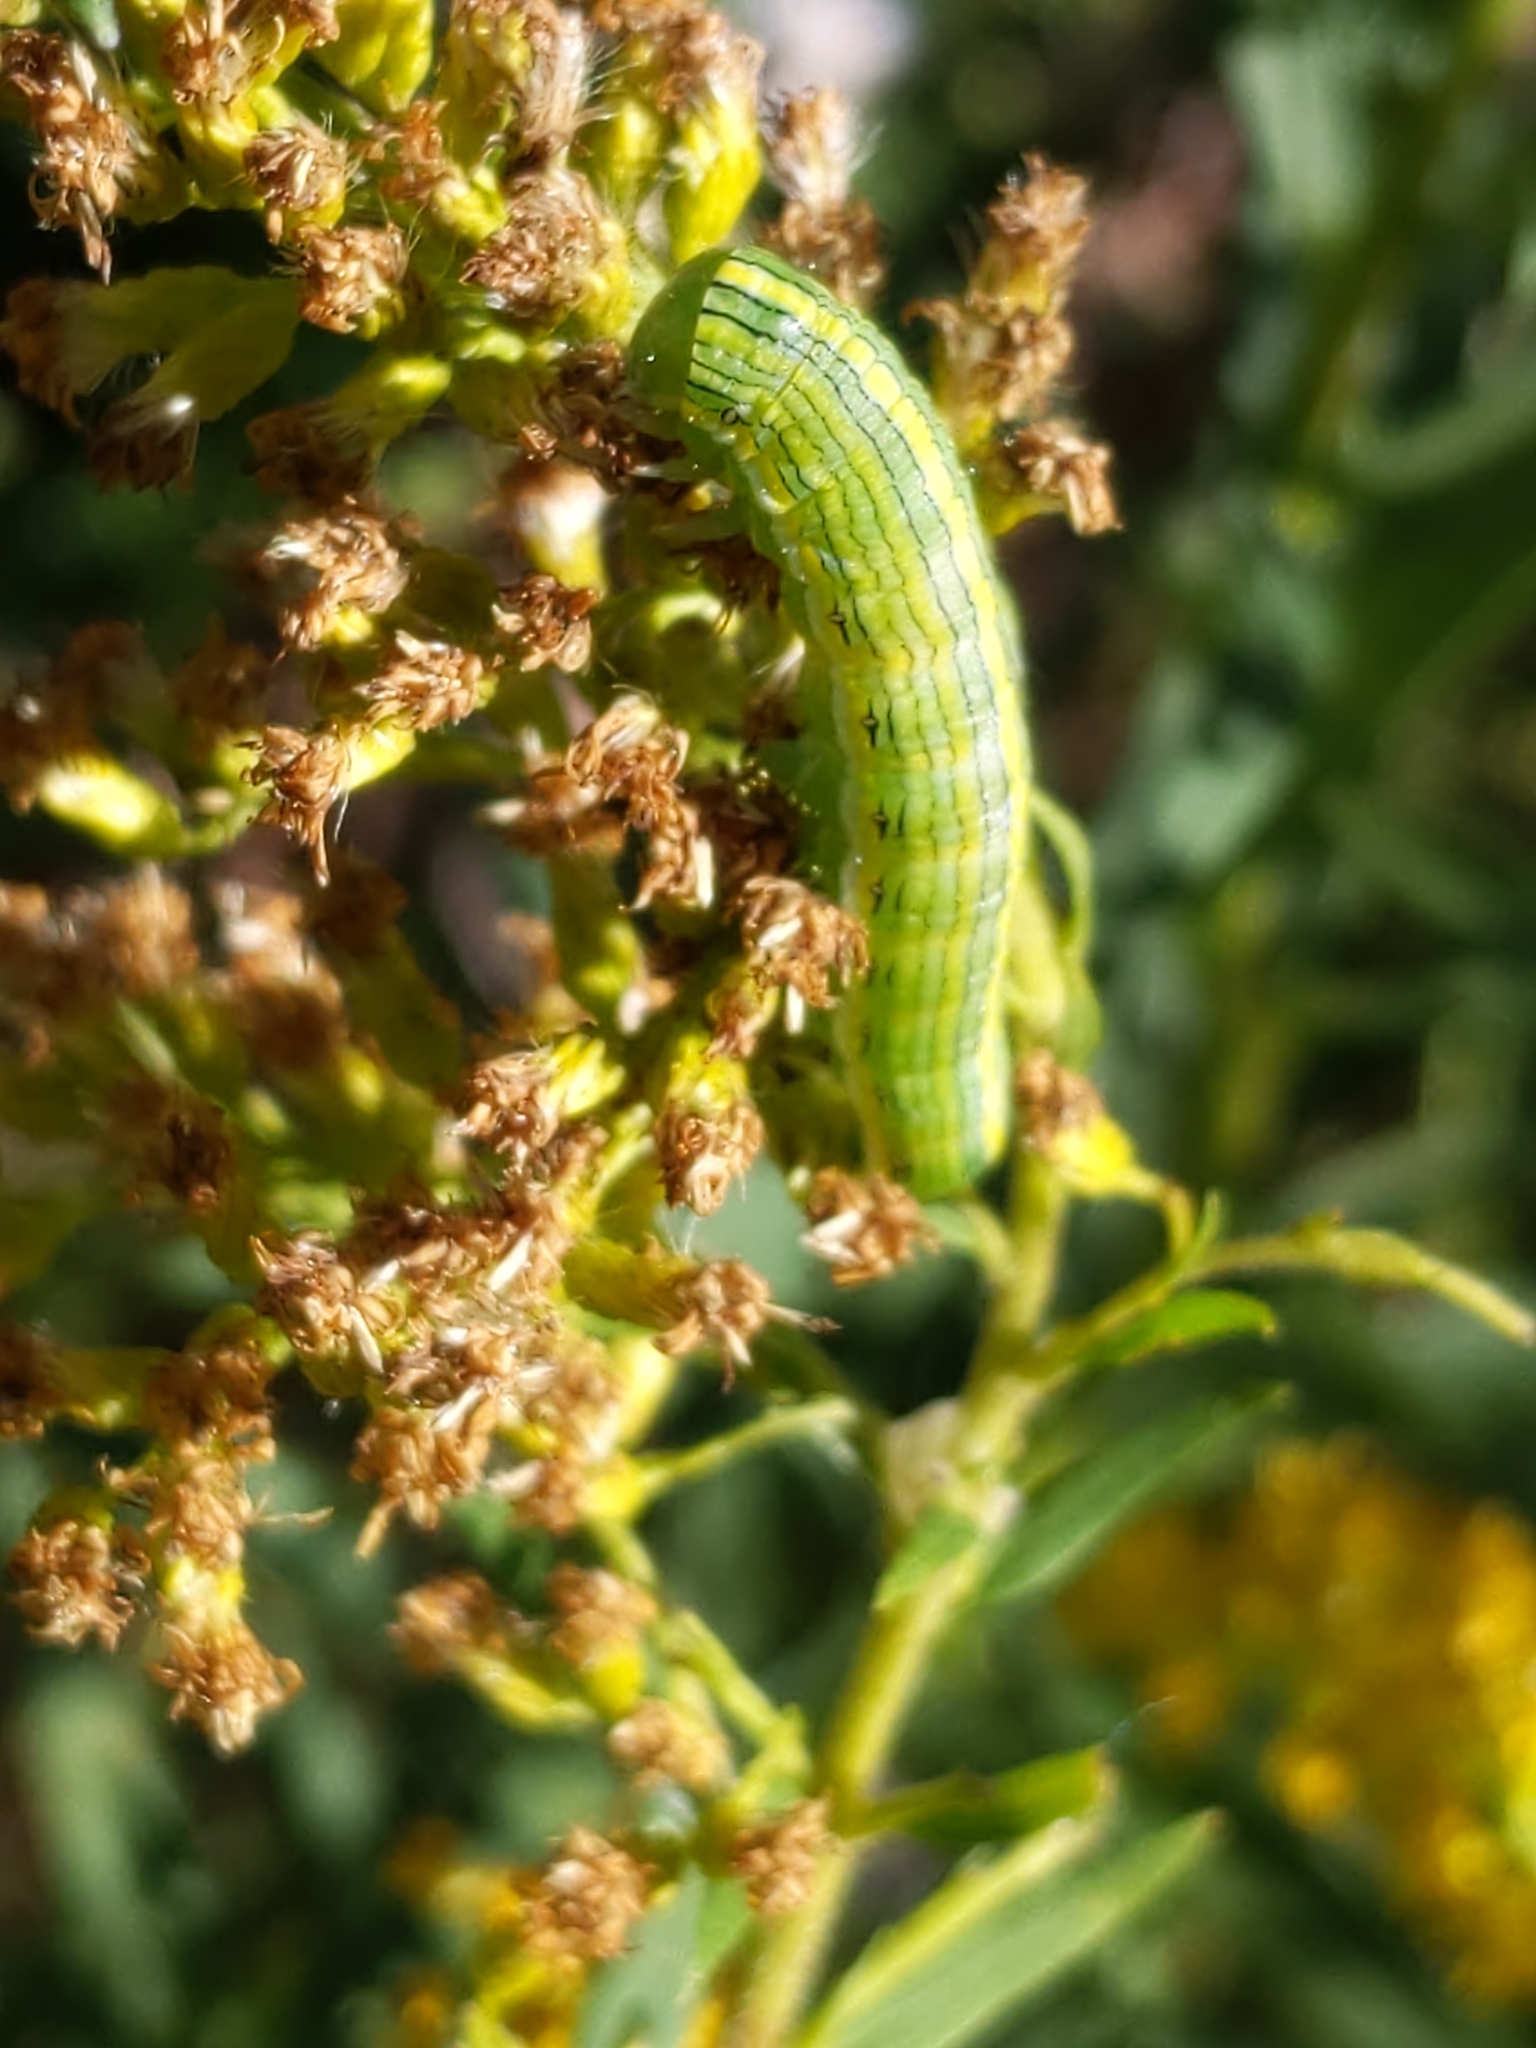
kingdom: Animalia
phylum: Arthropoda
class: Insecta
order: Lepidoptera
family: Noctuidae
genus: Cucullia
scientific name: Cucullia asteroides
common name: Asteroid moth
